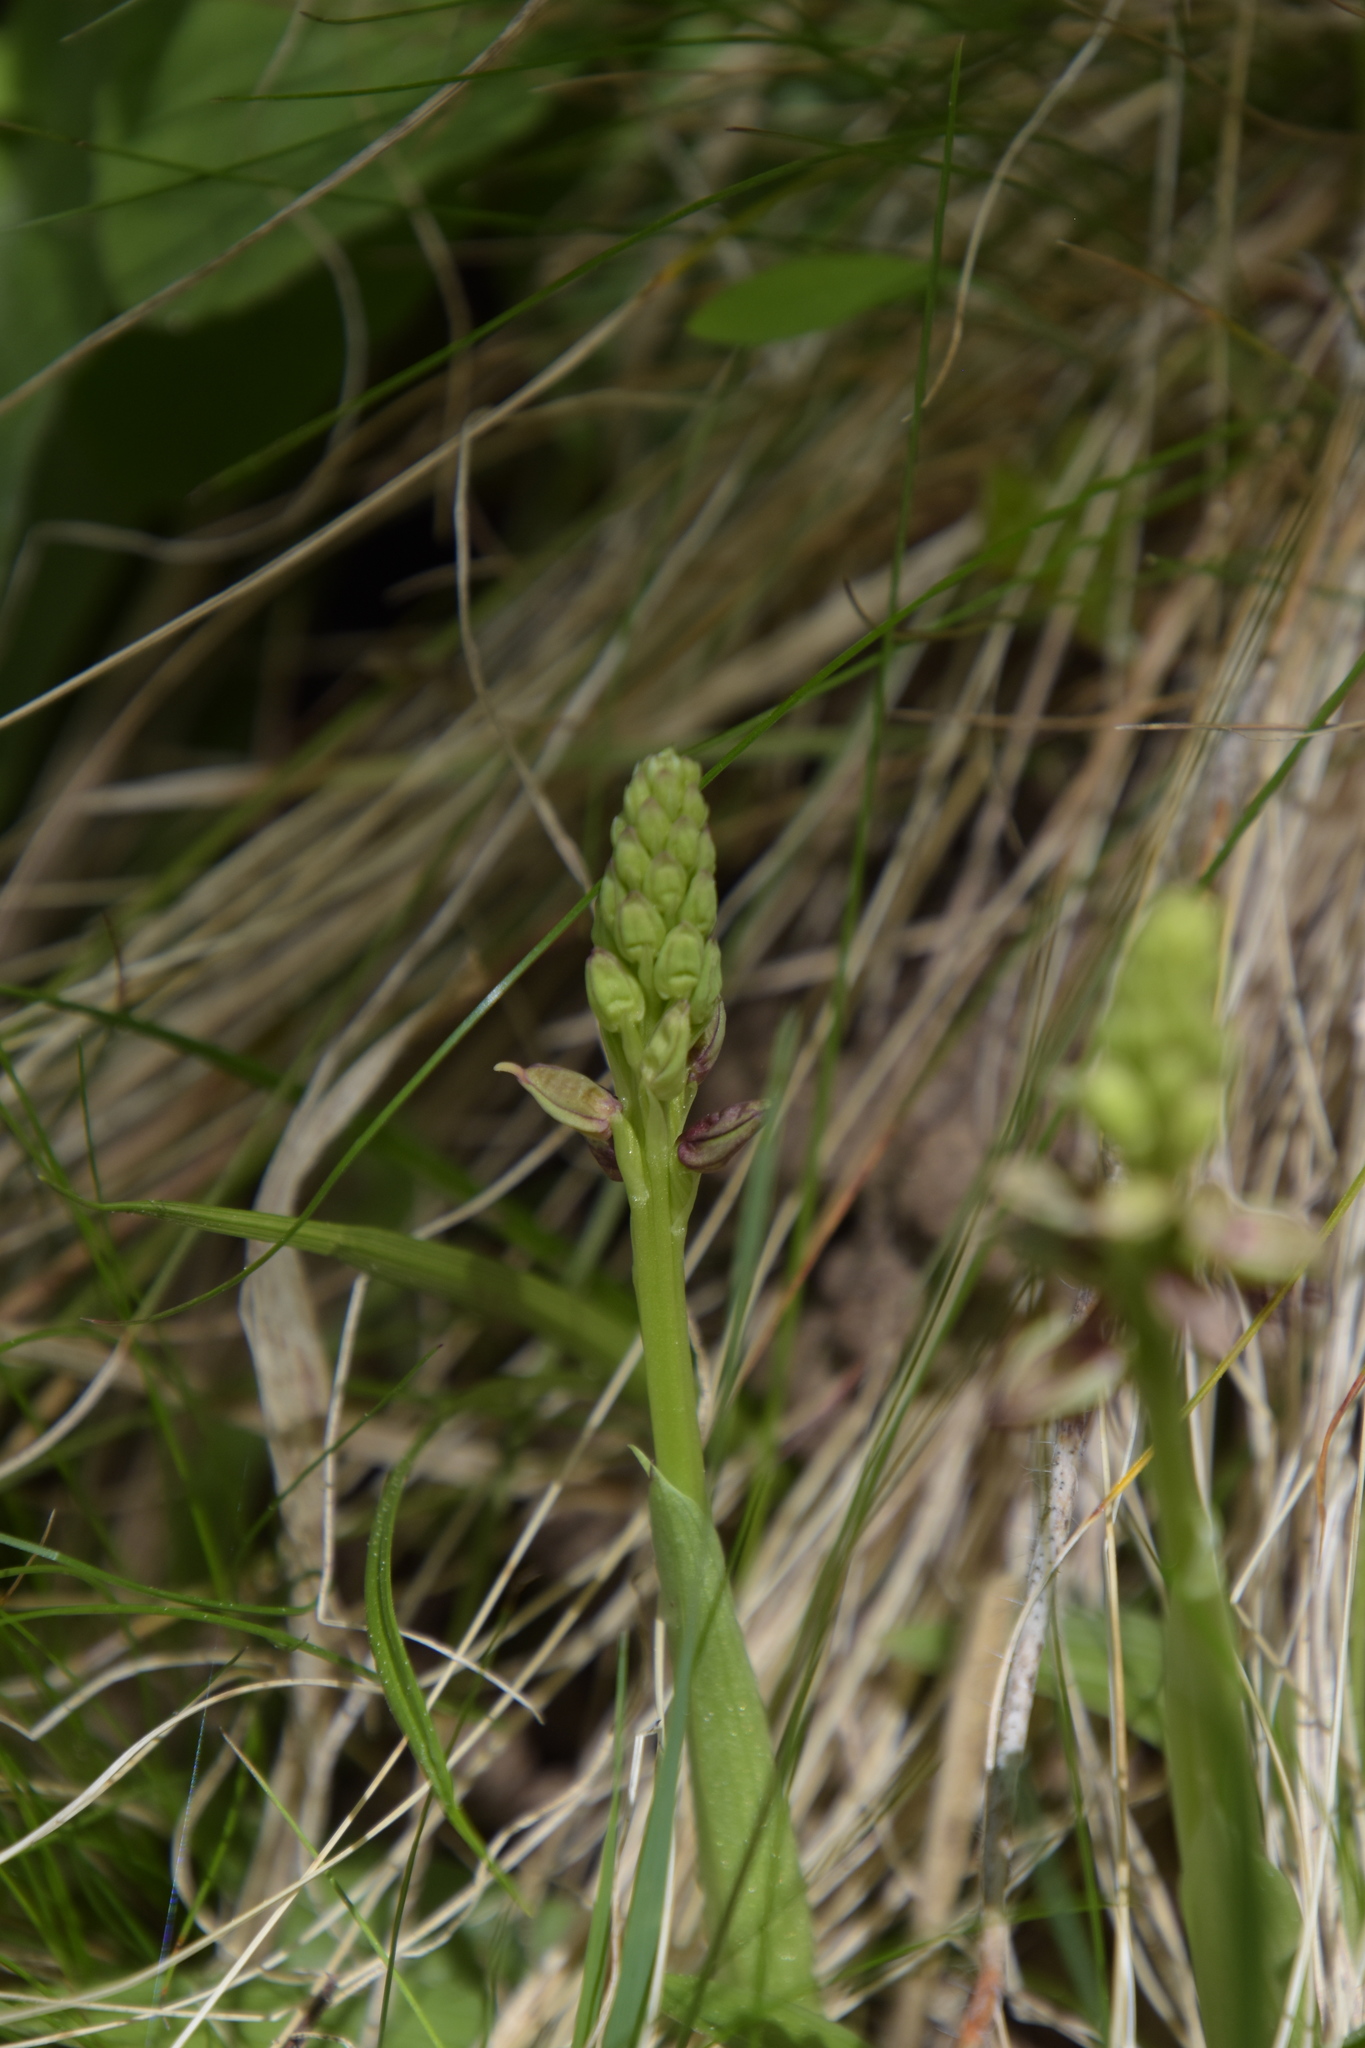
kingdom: Plantae
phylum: Tracheophyta
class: Liliopsida
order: Asparagales
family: Orchidaceae
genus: Orchis
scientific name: Orchis anthropophora
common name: Man orchid
